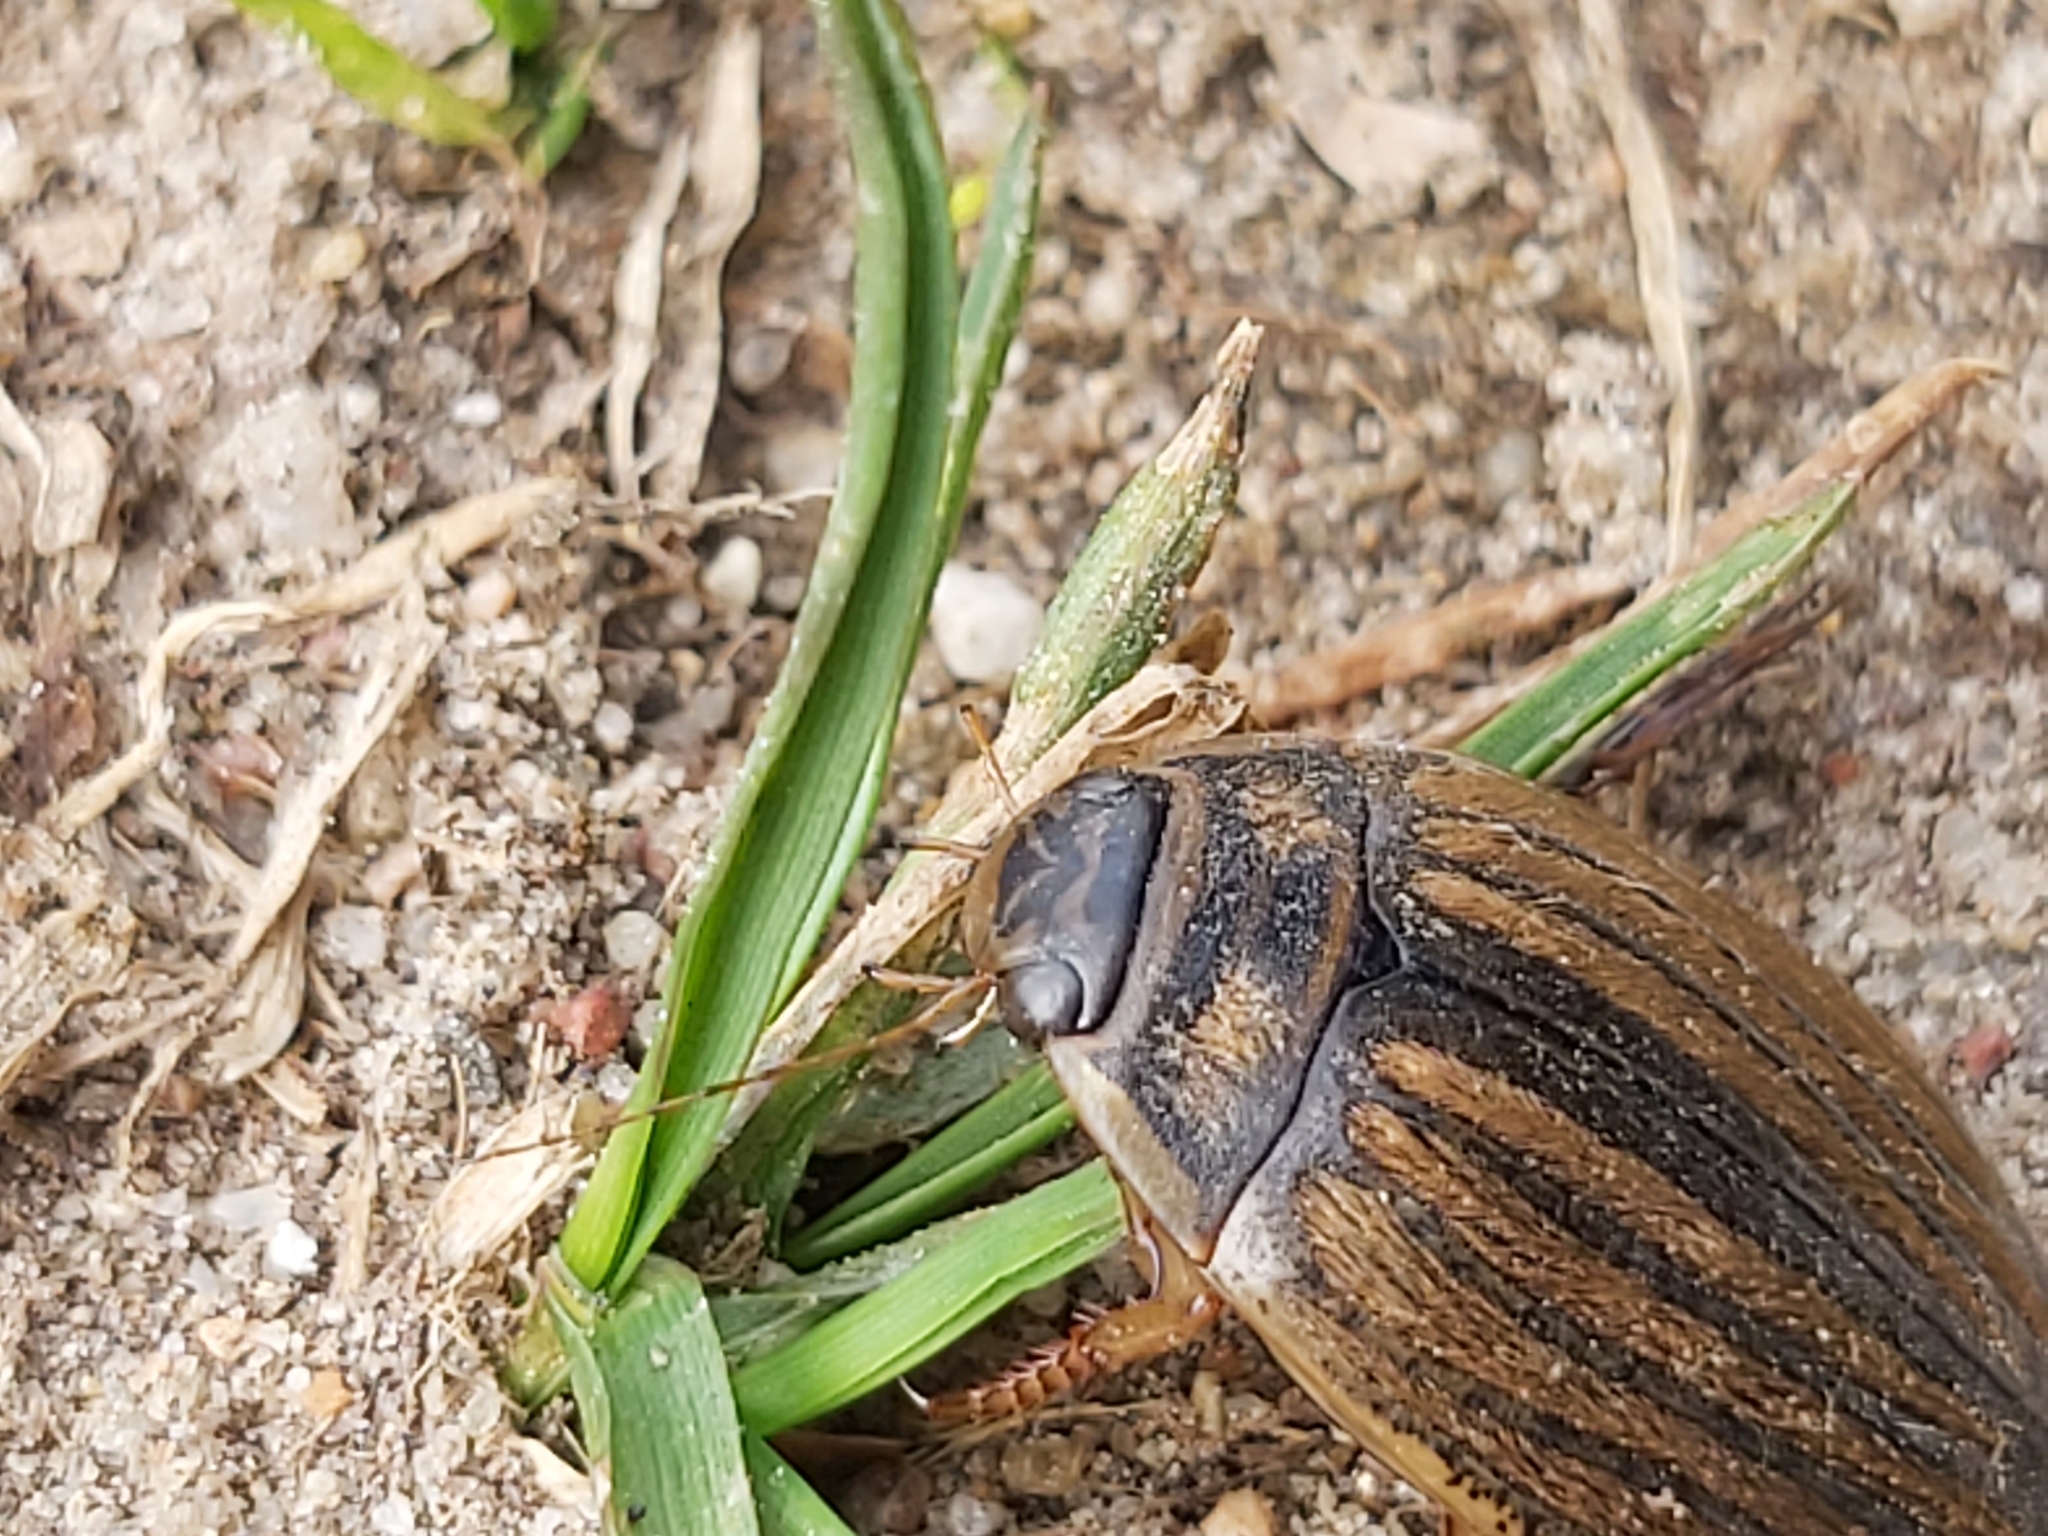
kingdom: Animalia
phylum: Arthropoda
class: Insecta
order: Coleoptera
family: Dytiscidae
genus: Acilius
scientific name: Acilius sulcatus
